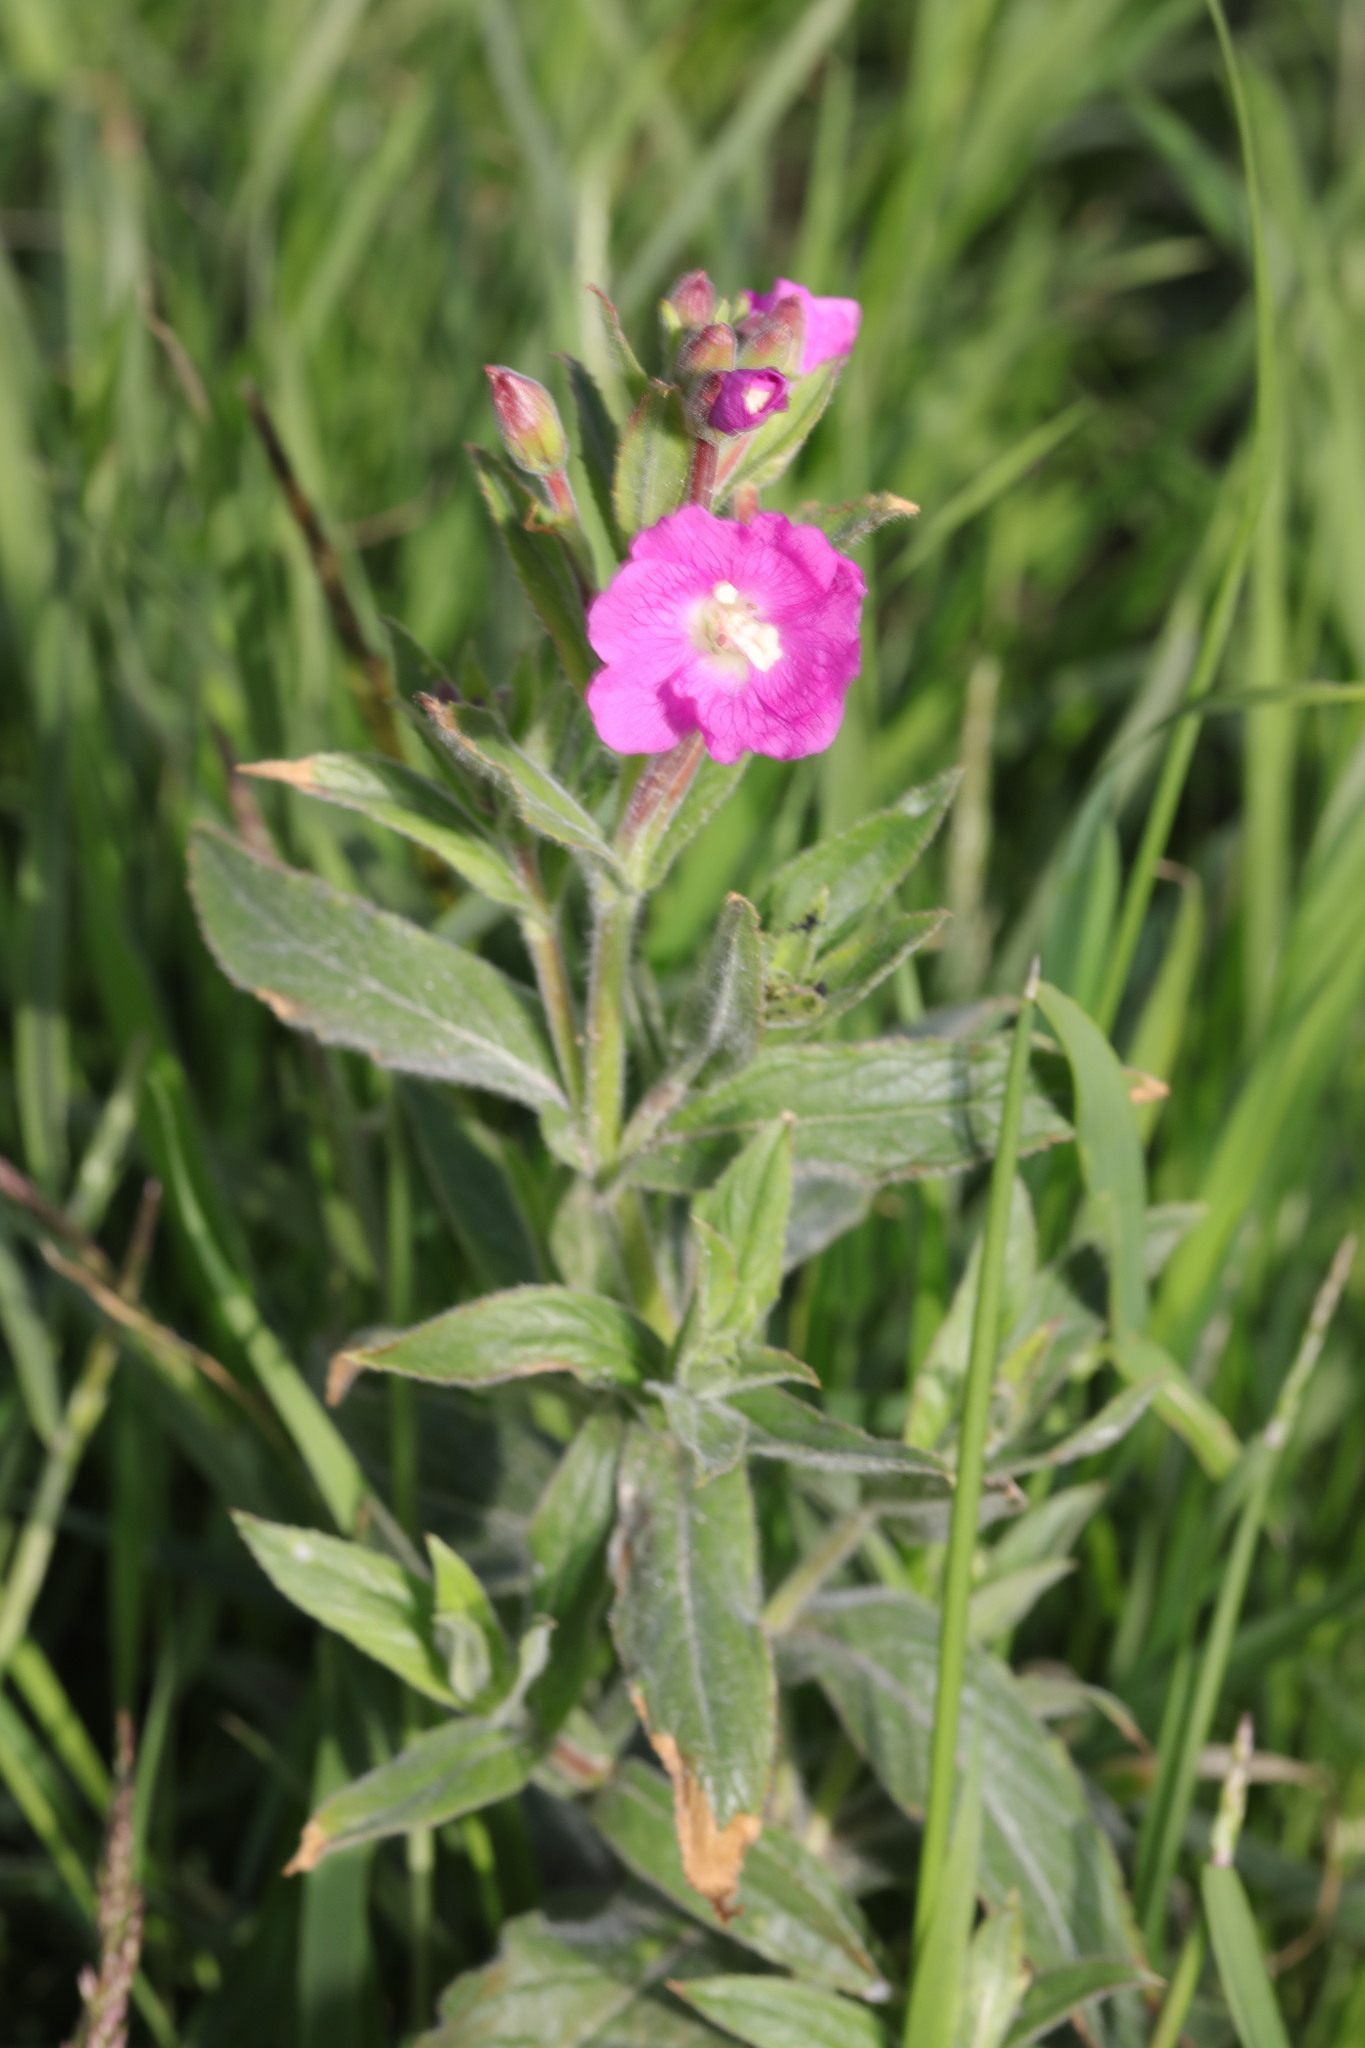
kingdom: Plantae
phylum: Tracheophyta
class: Magnoliopsida
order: Myrtales
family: Onagraceae
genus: Epilobium
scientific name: Epilobium hirsutum
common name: Great willowherb
